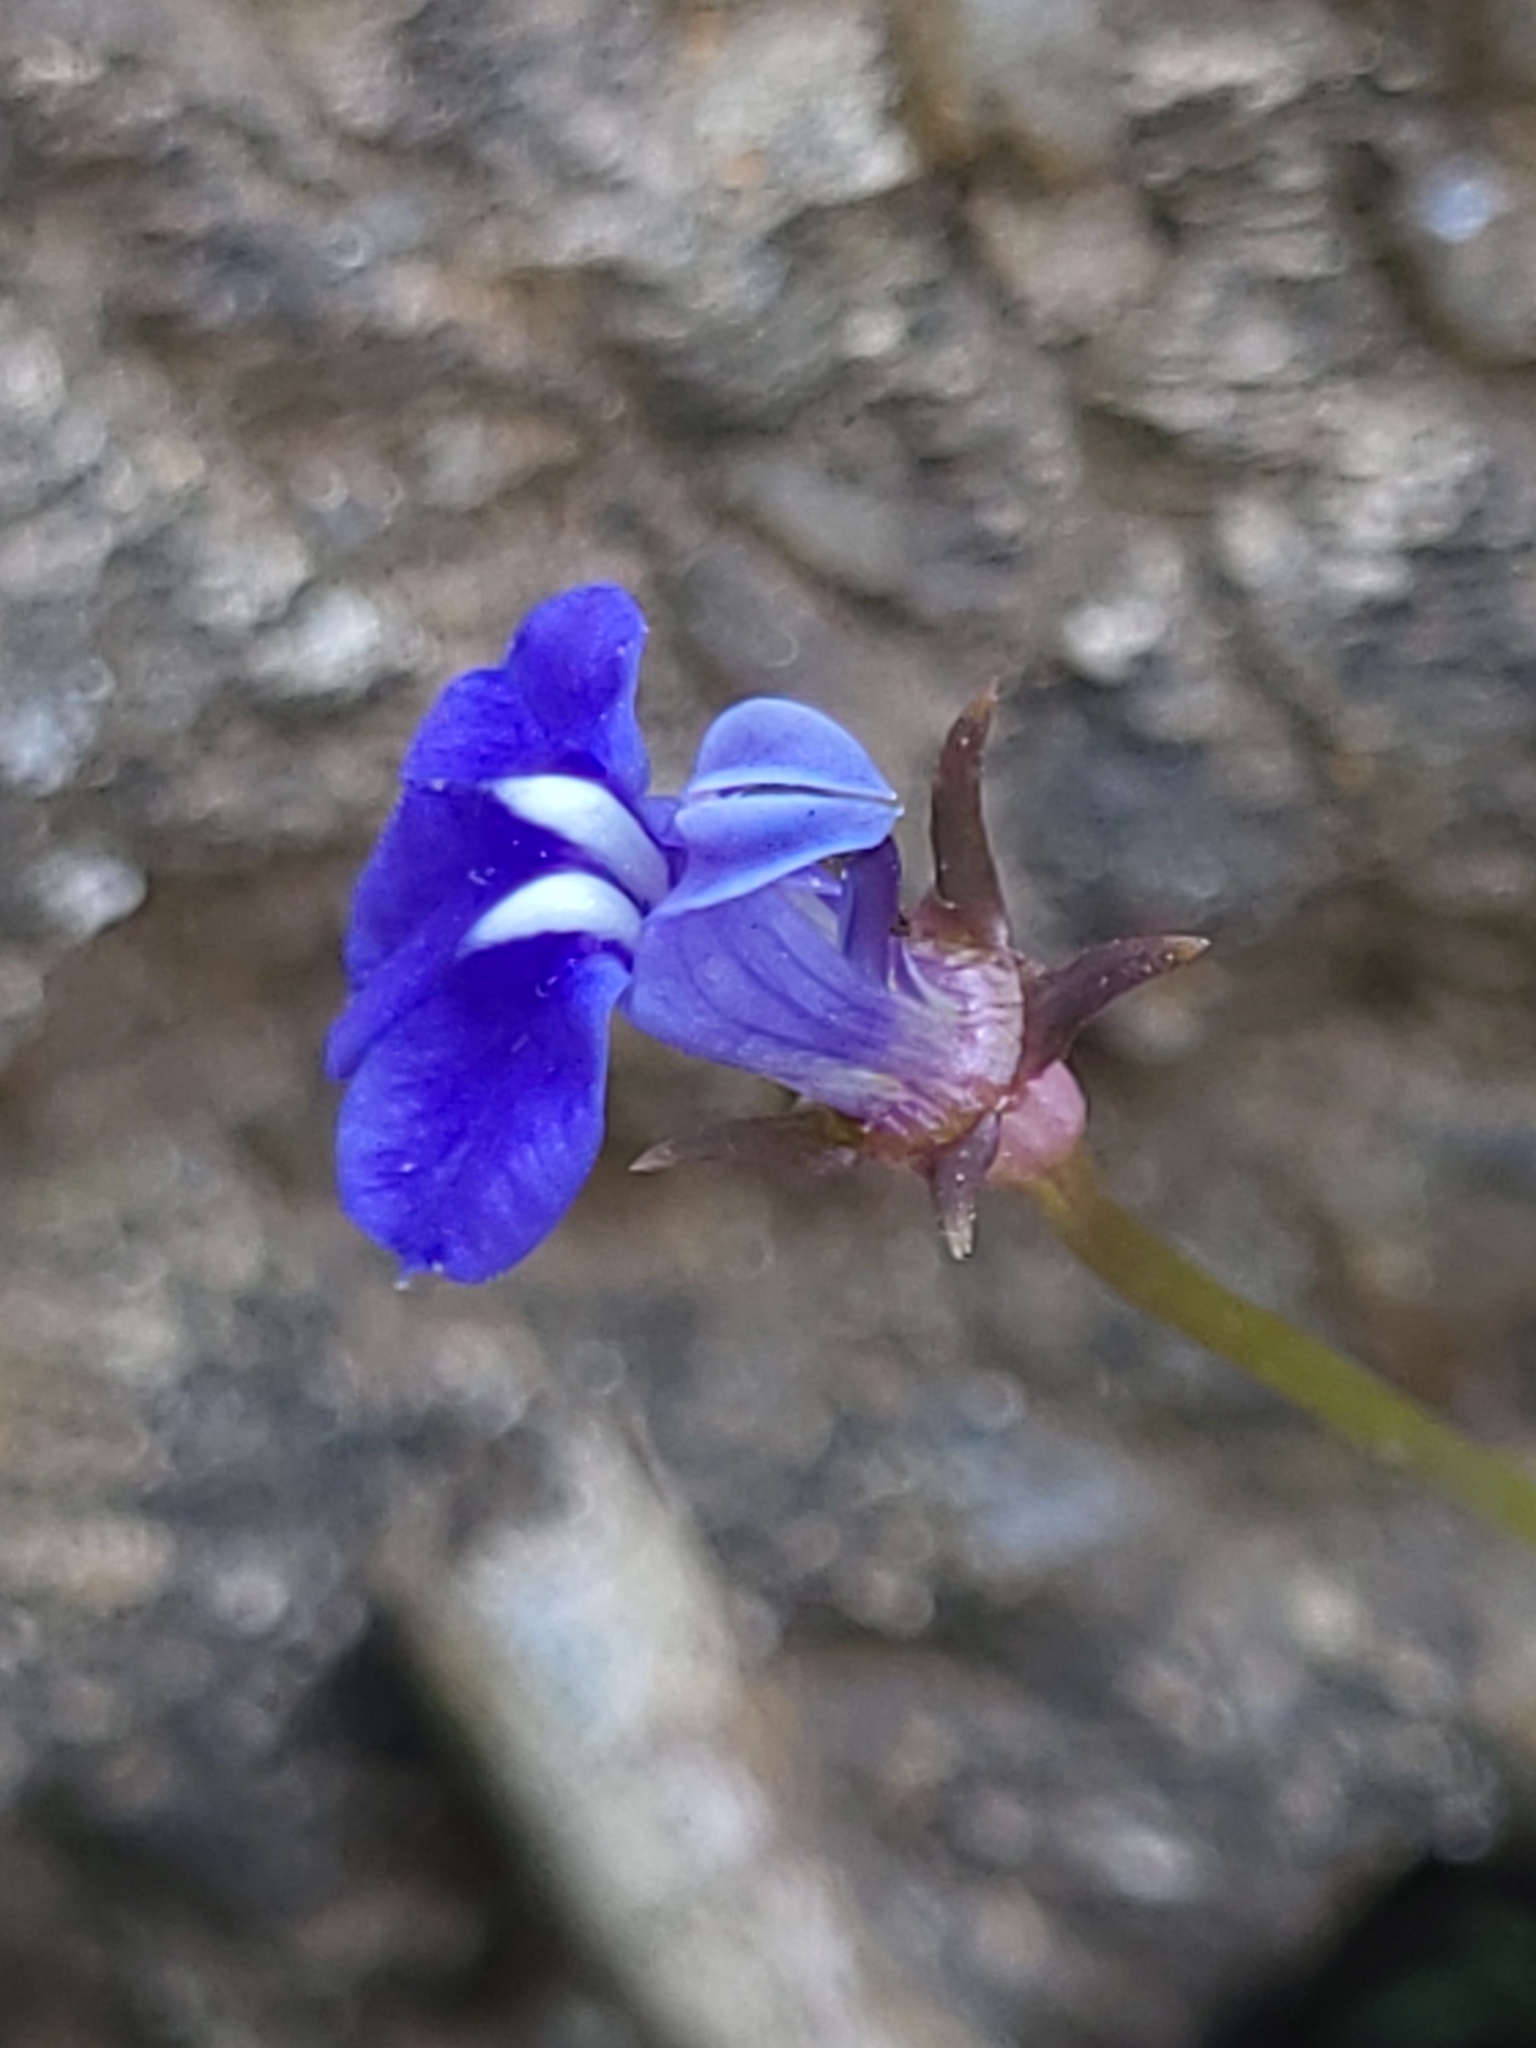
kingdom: Plantae
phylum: Tracheophyta
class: Magnoliopsida
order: Asterales
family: Campanulaceae
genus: Lobelia
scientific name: Lobelia alsinoides
